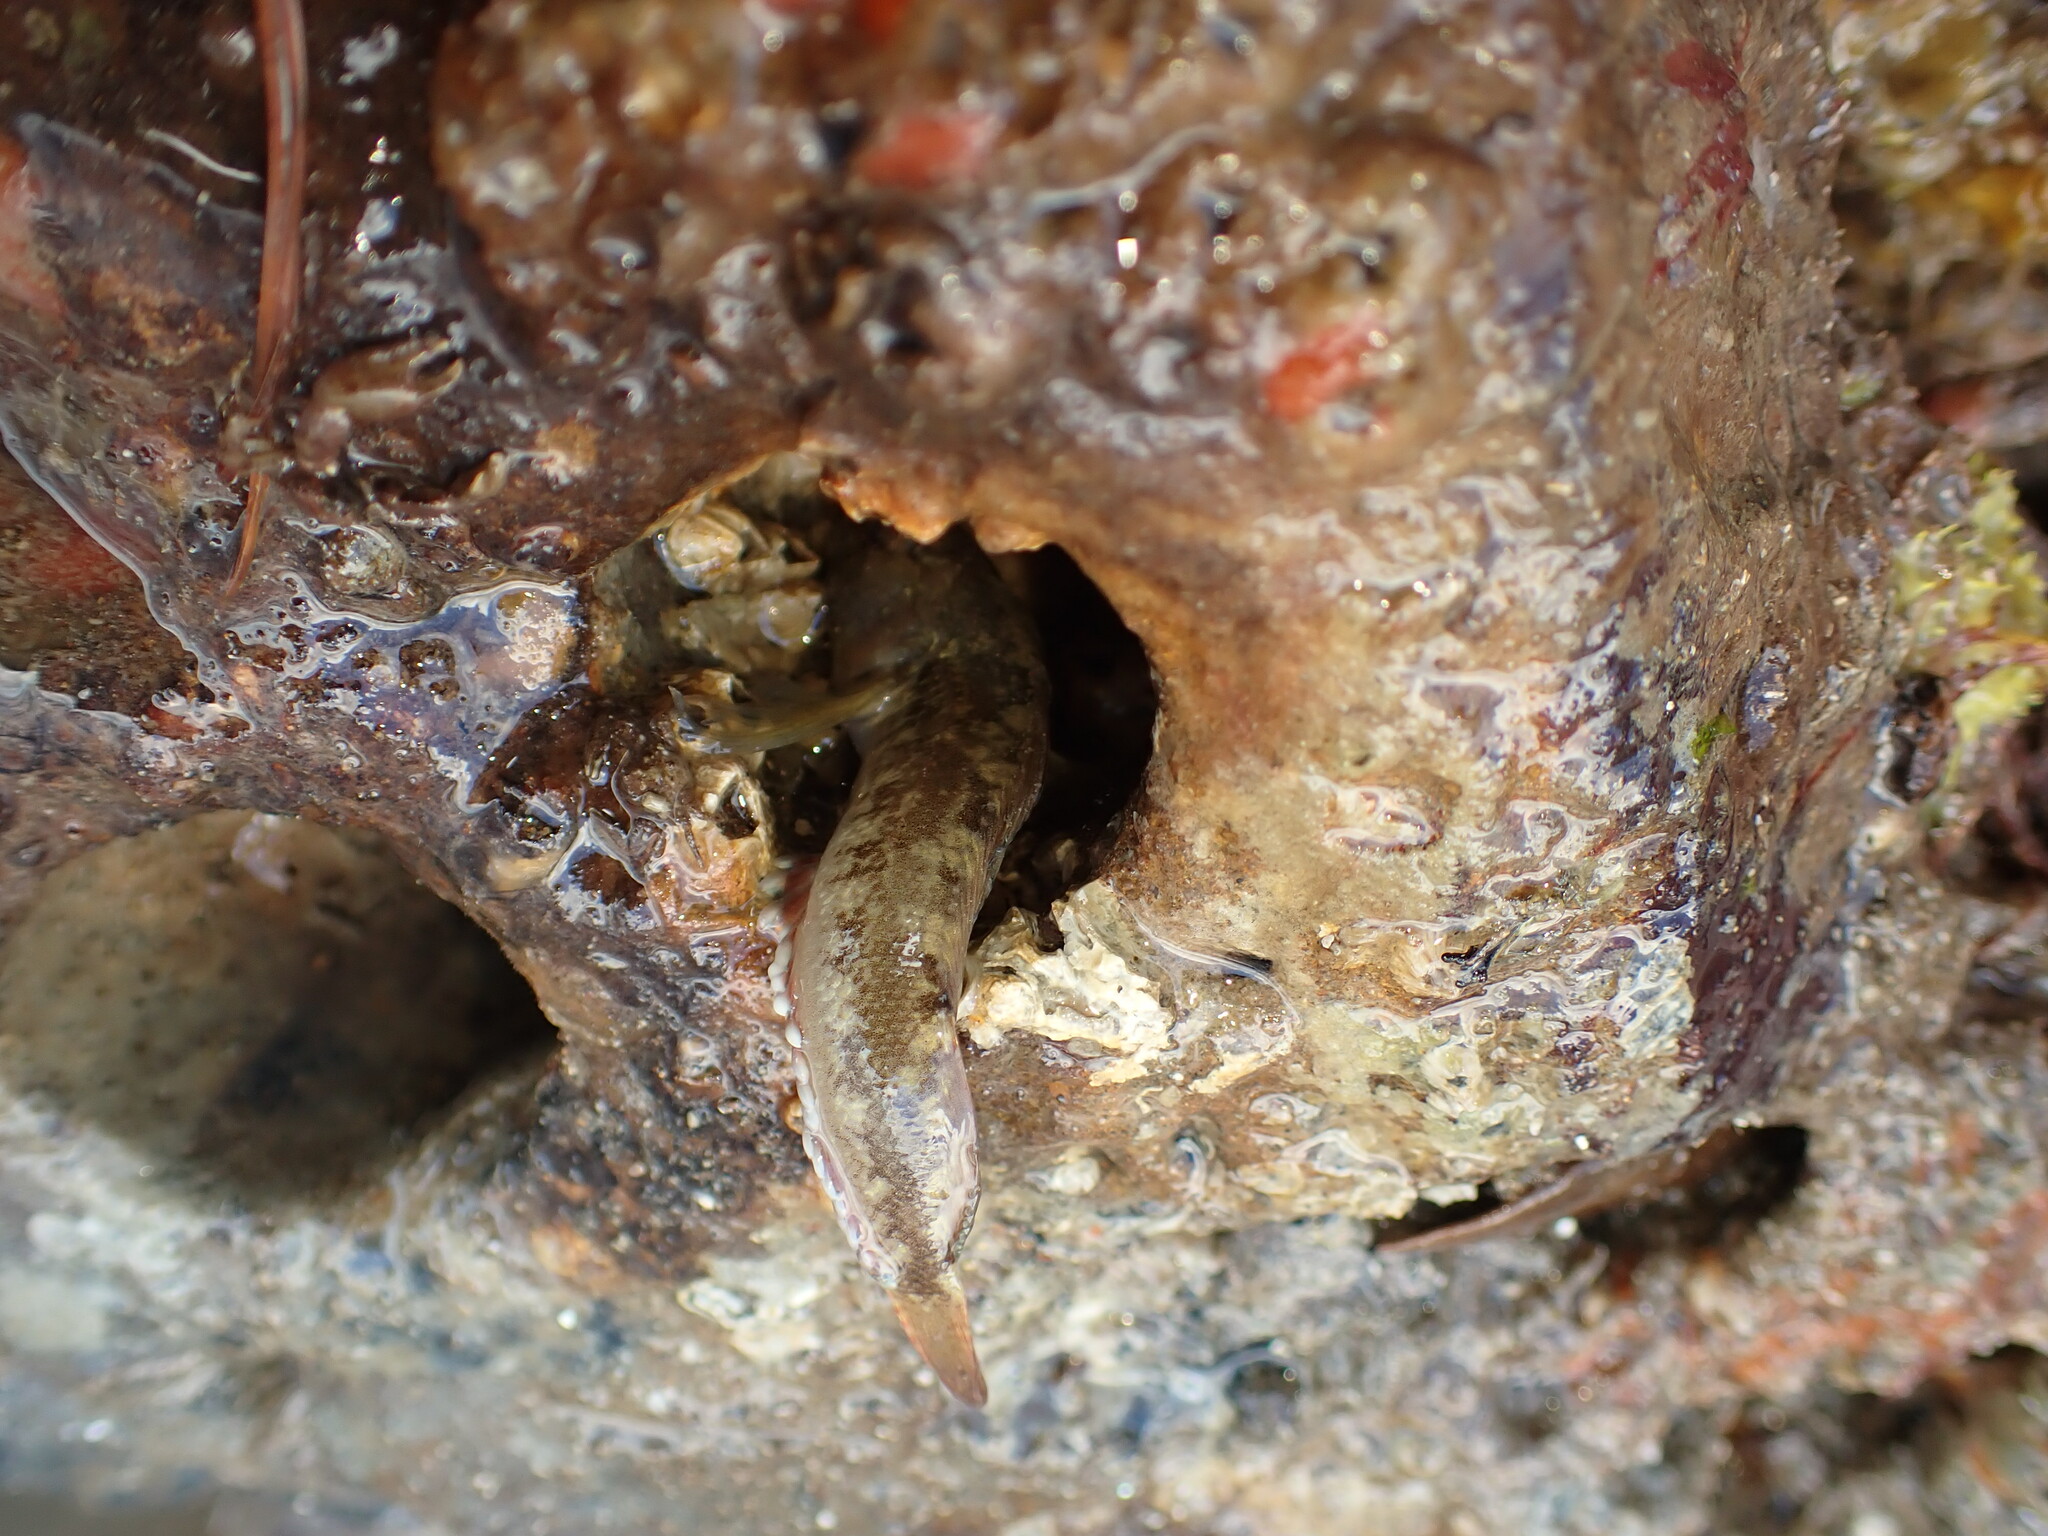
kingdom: Animalia
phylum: Chordata
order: Perciformes
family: Tripterygiidae
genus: Forsterygion
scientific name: Forsterygion capito
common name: Spotted robust triplefin
